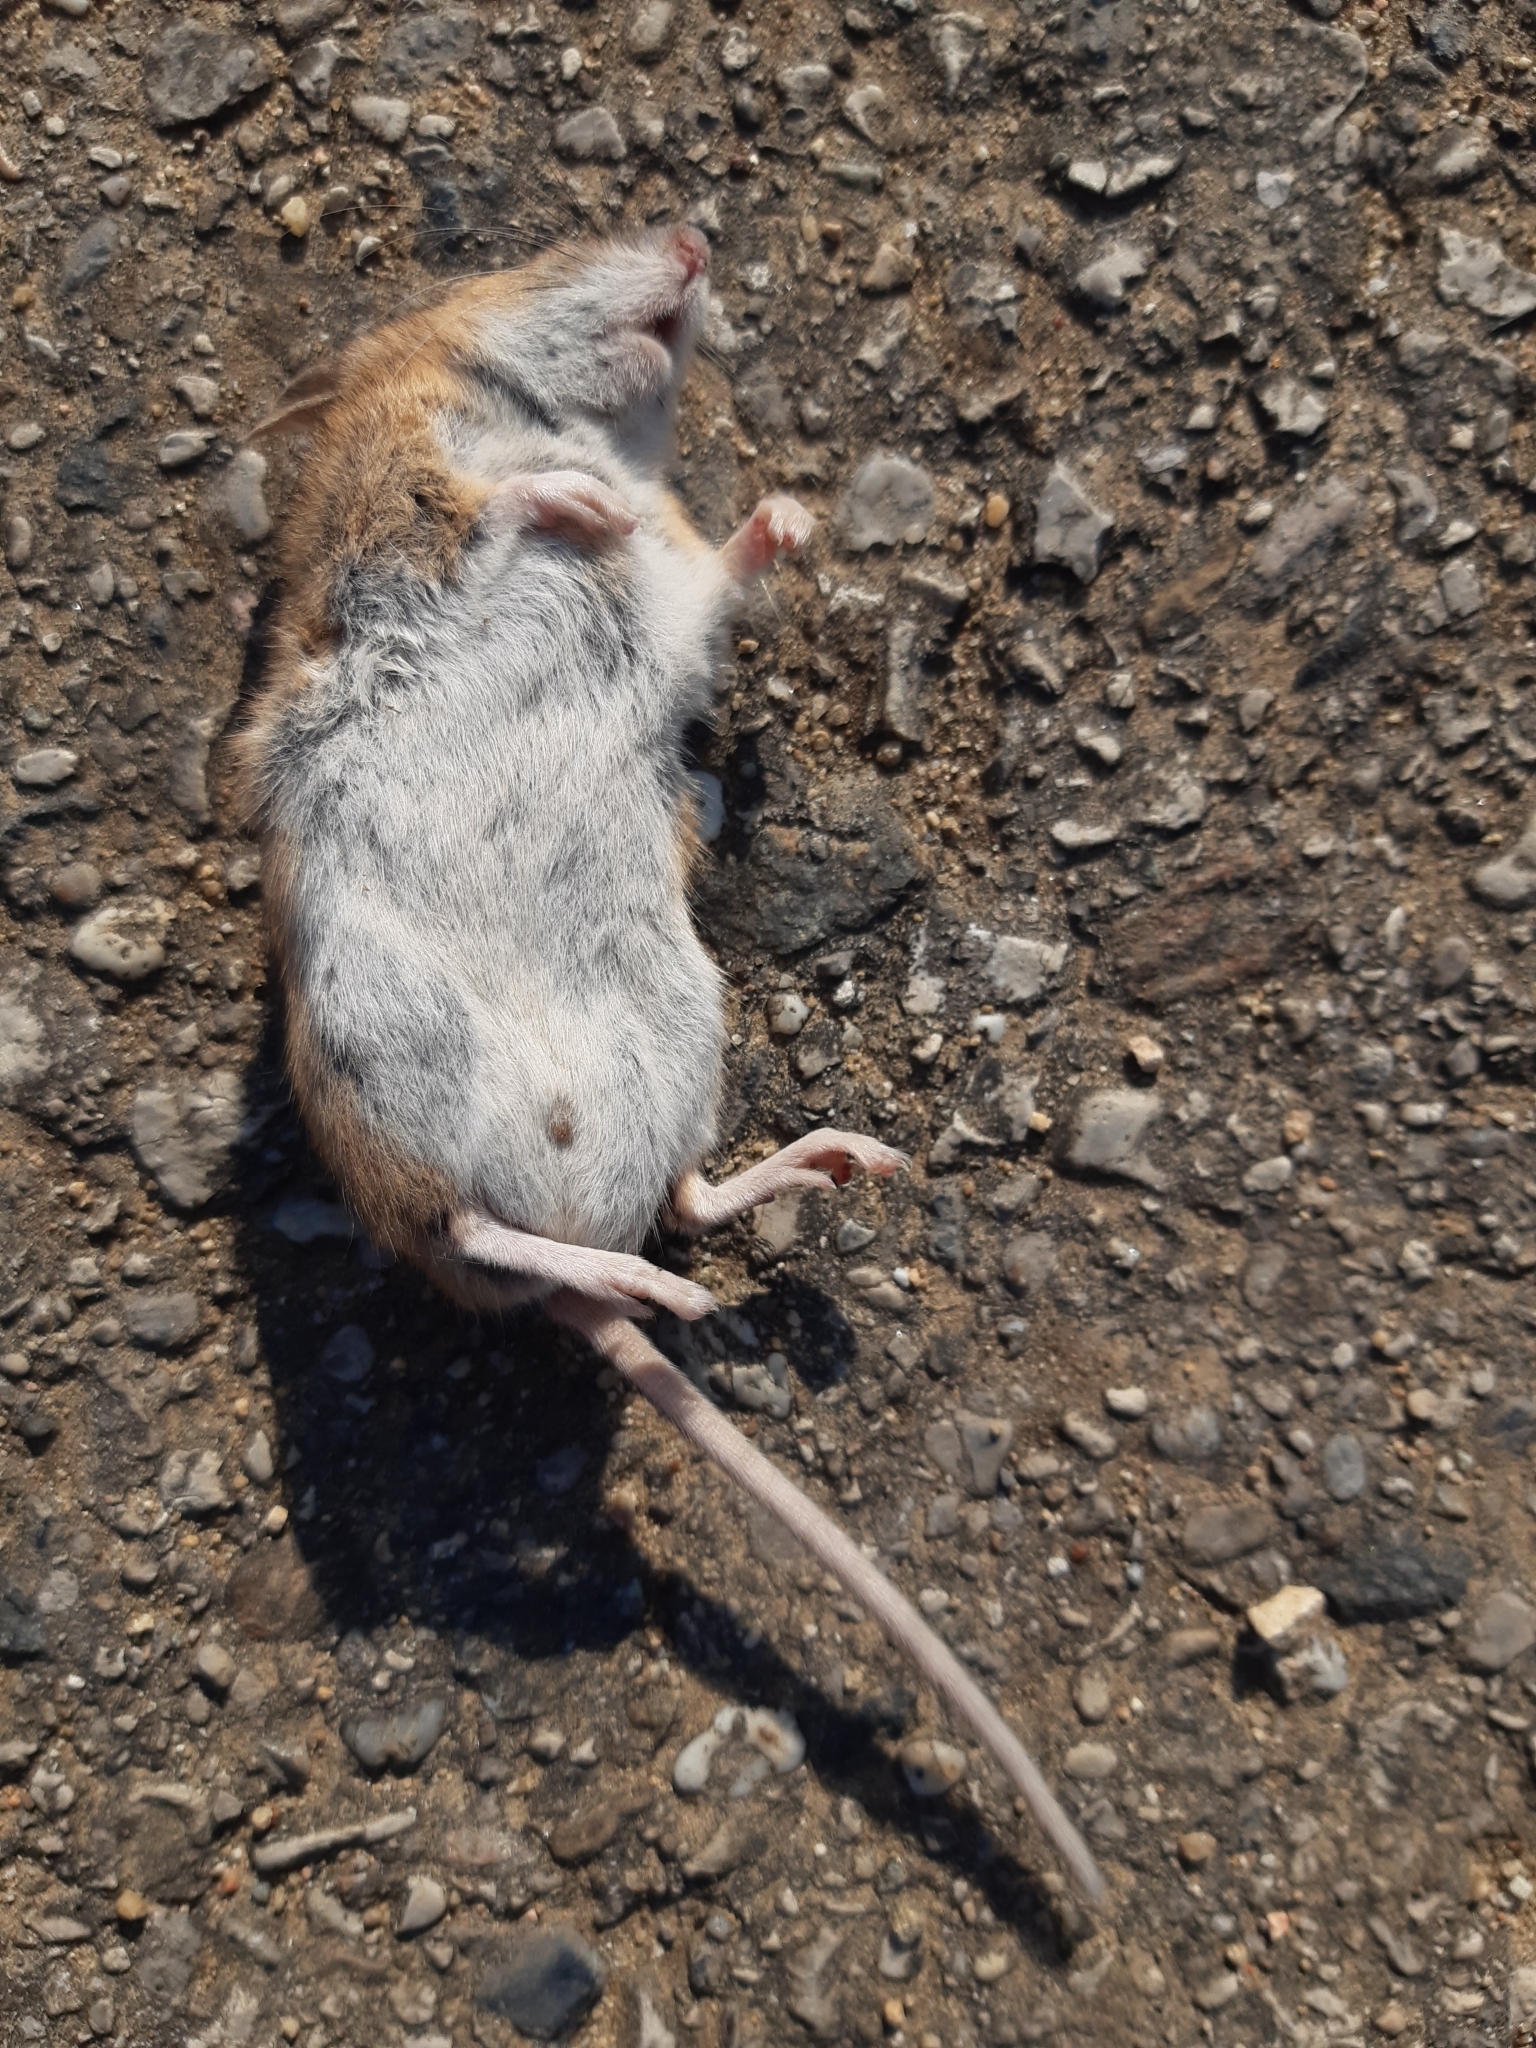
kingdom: Animalia
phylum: Chordata
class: Mammalia
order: Rodentia
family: Muridae
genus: Apodemus
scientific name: Apodemus sylvaticus
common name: Wood mouse
